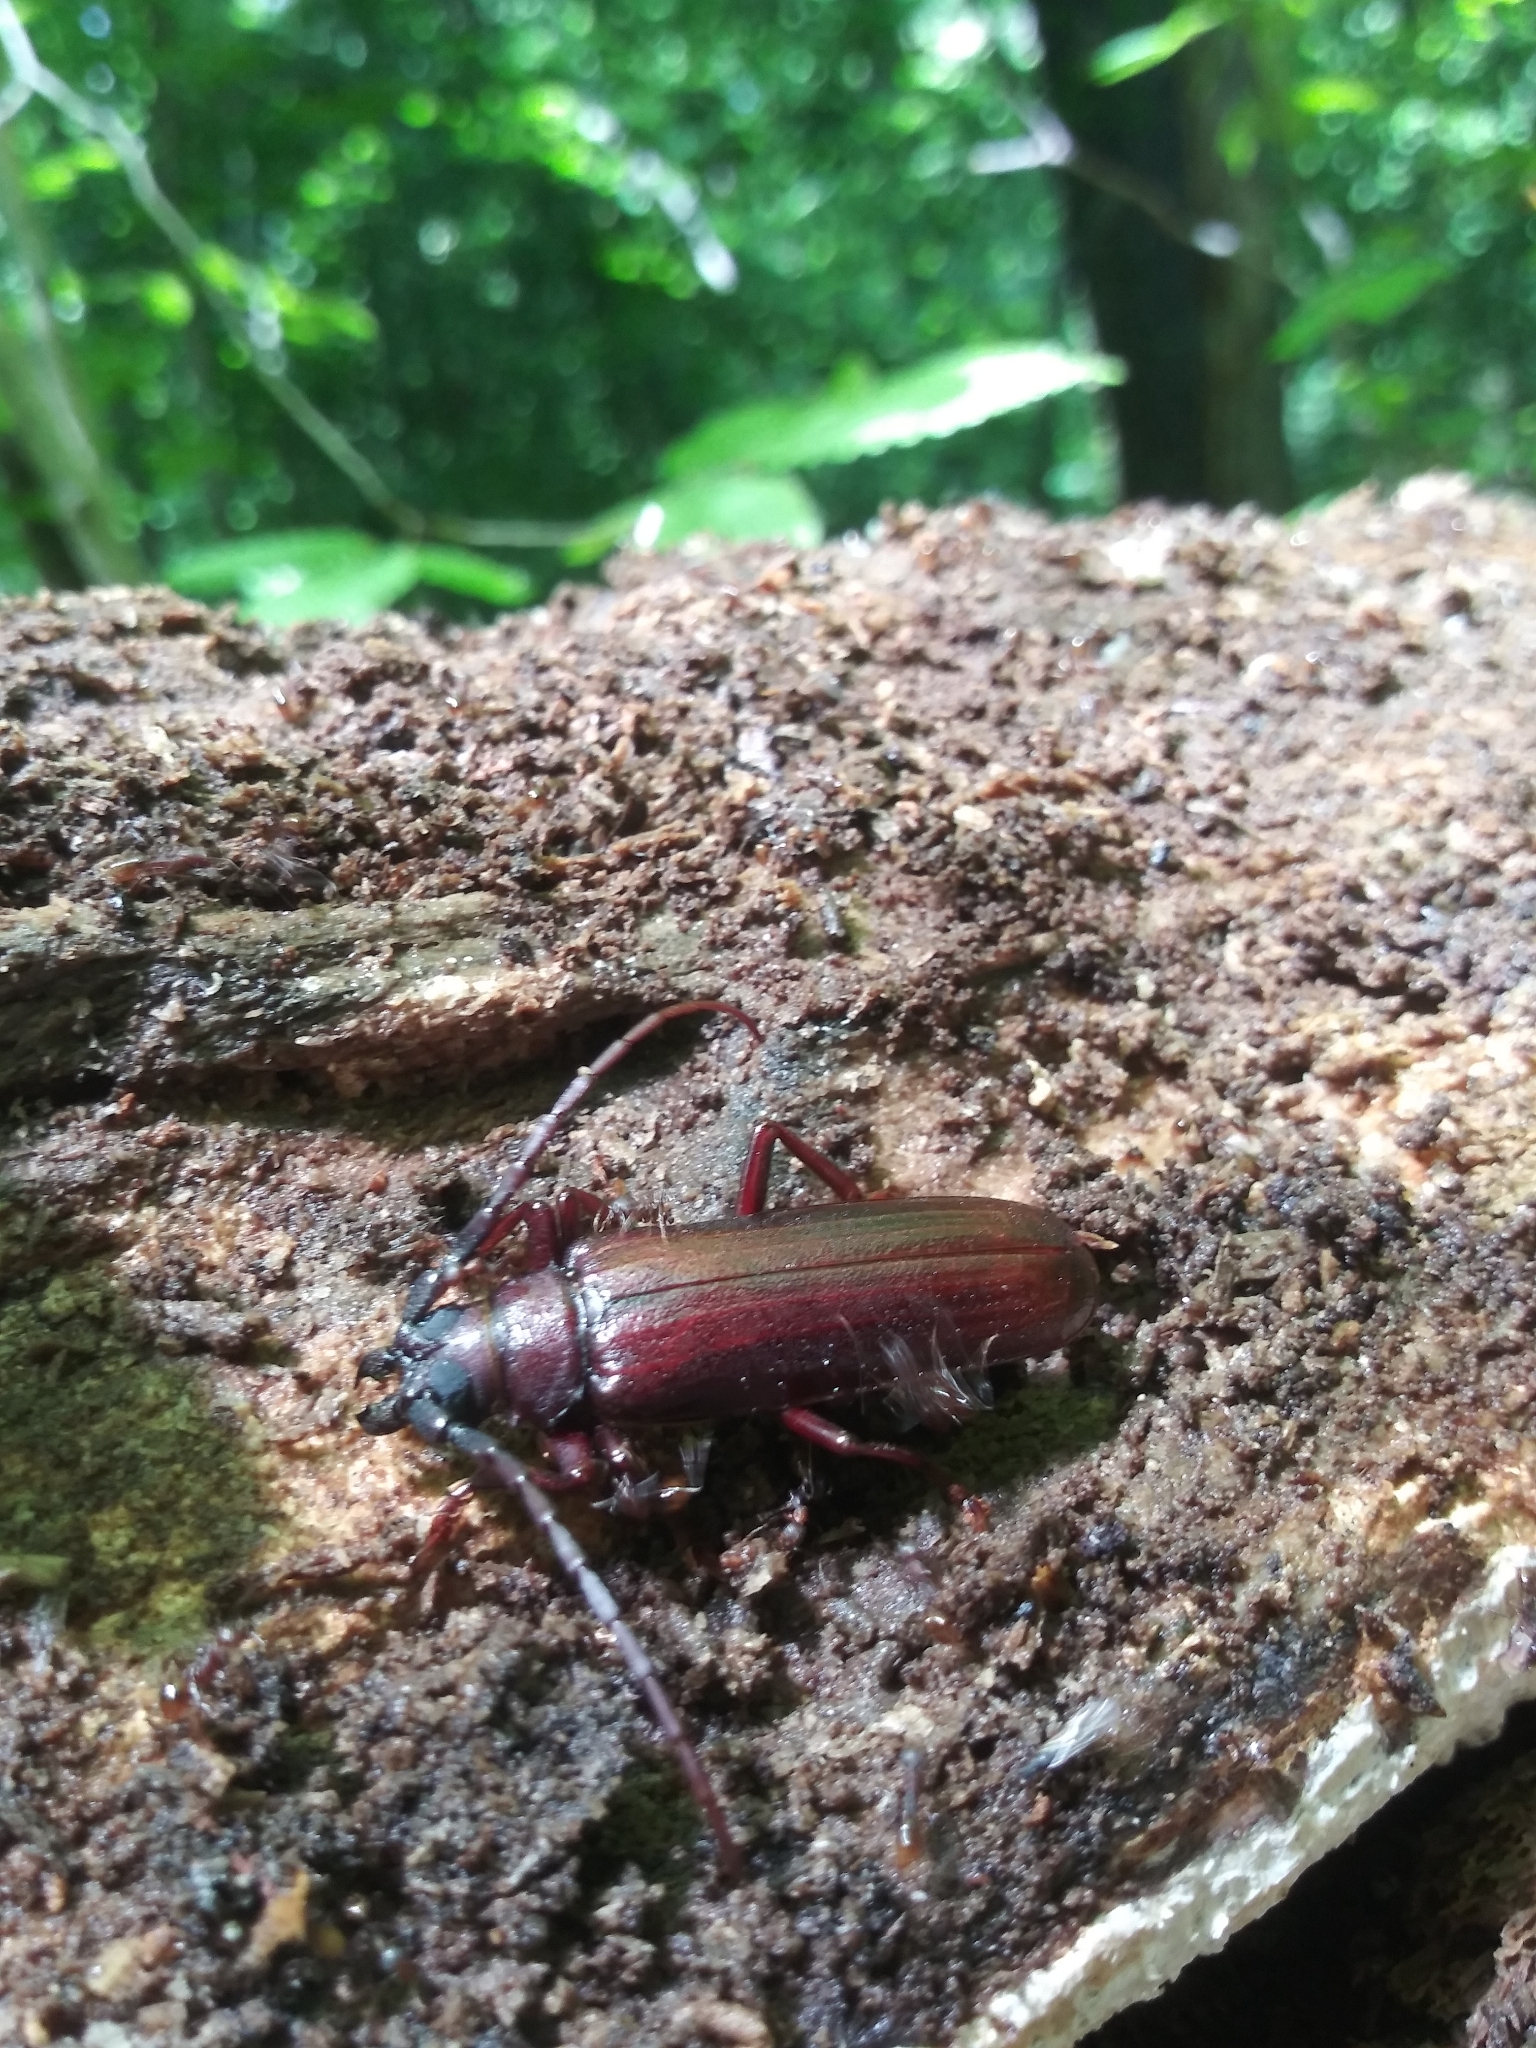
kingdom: Animalia
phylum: Arthropoda
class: Insecta
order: Coleoptera
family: Cerambycidae
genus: Orthosoma
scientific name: Orthosoma brunneum
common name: Brown prionid beetle
